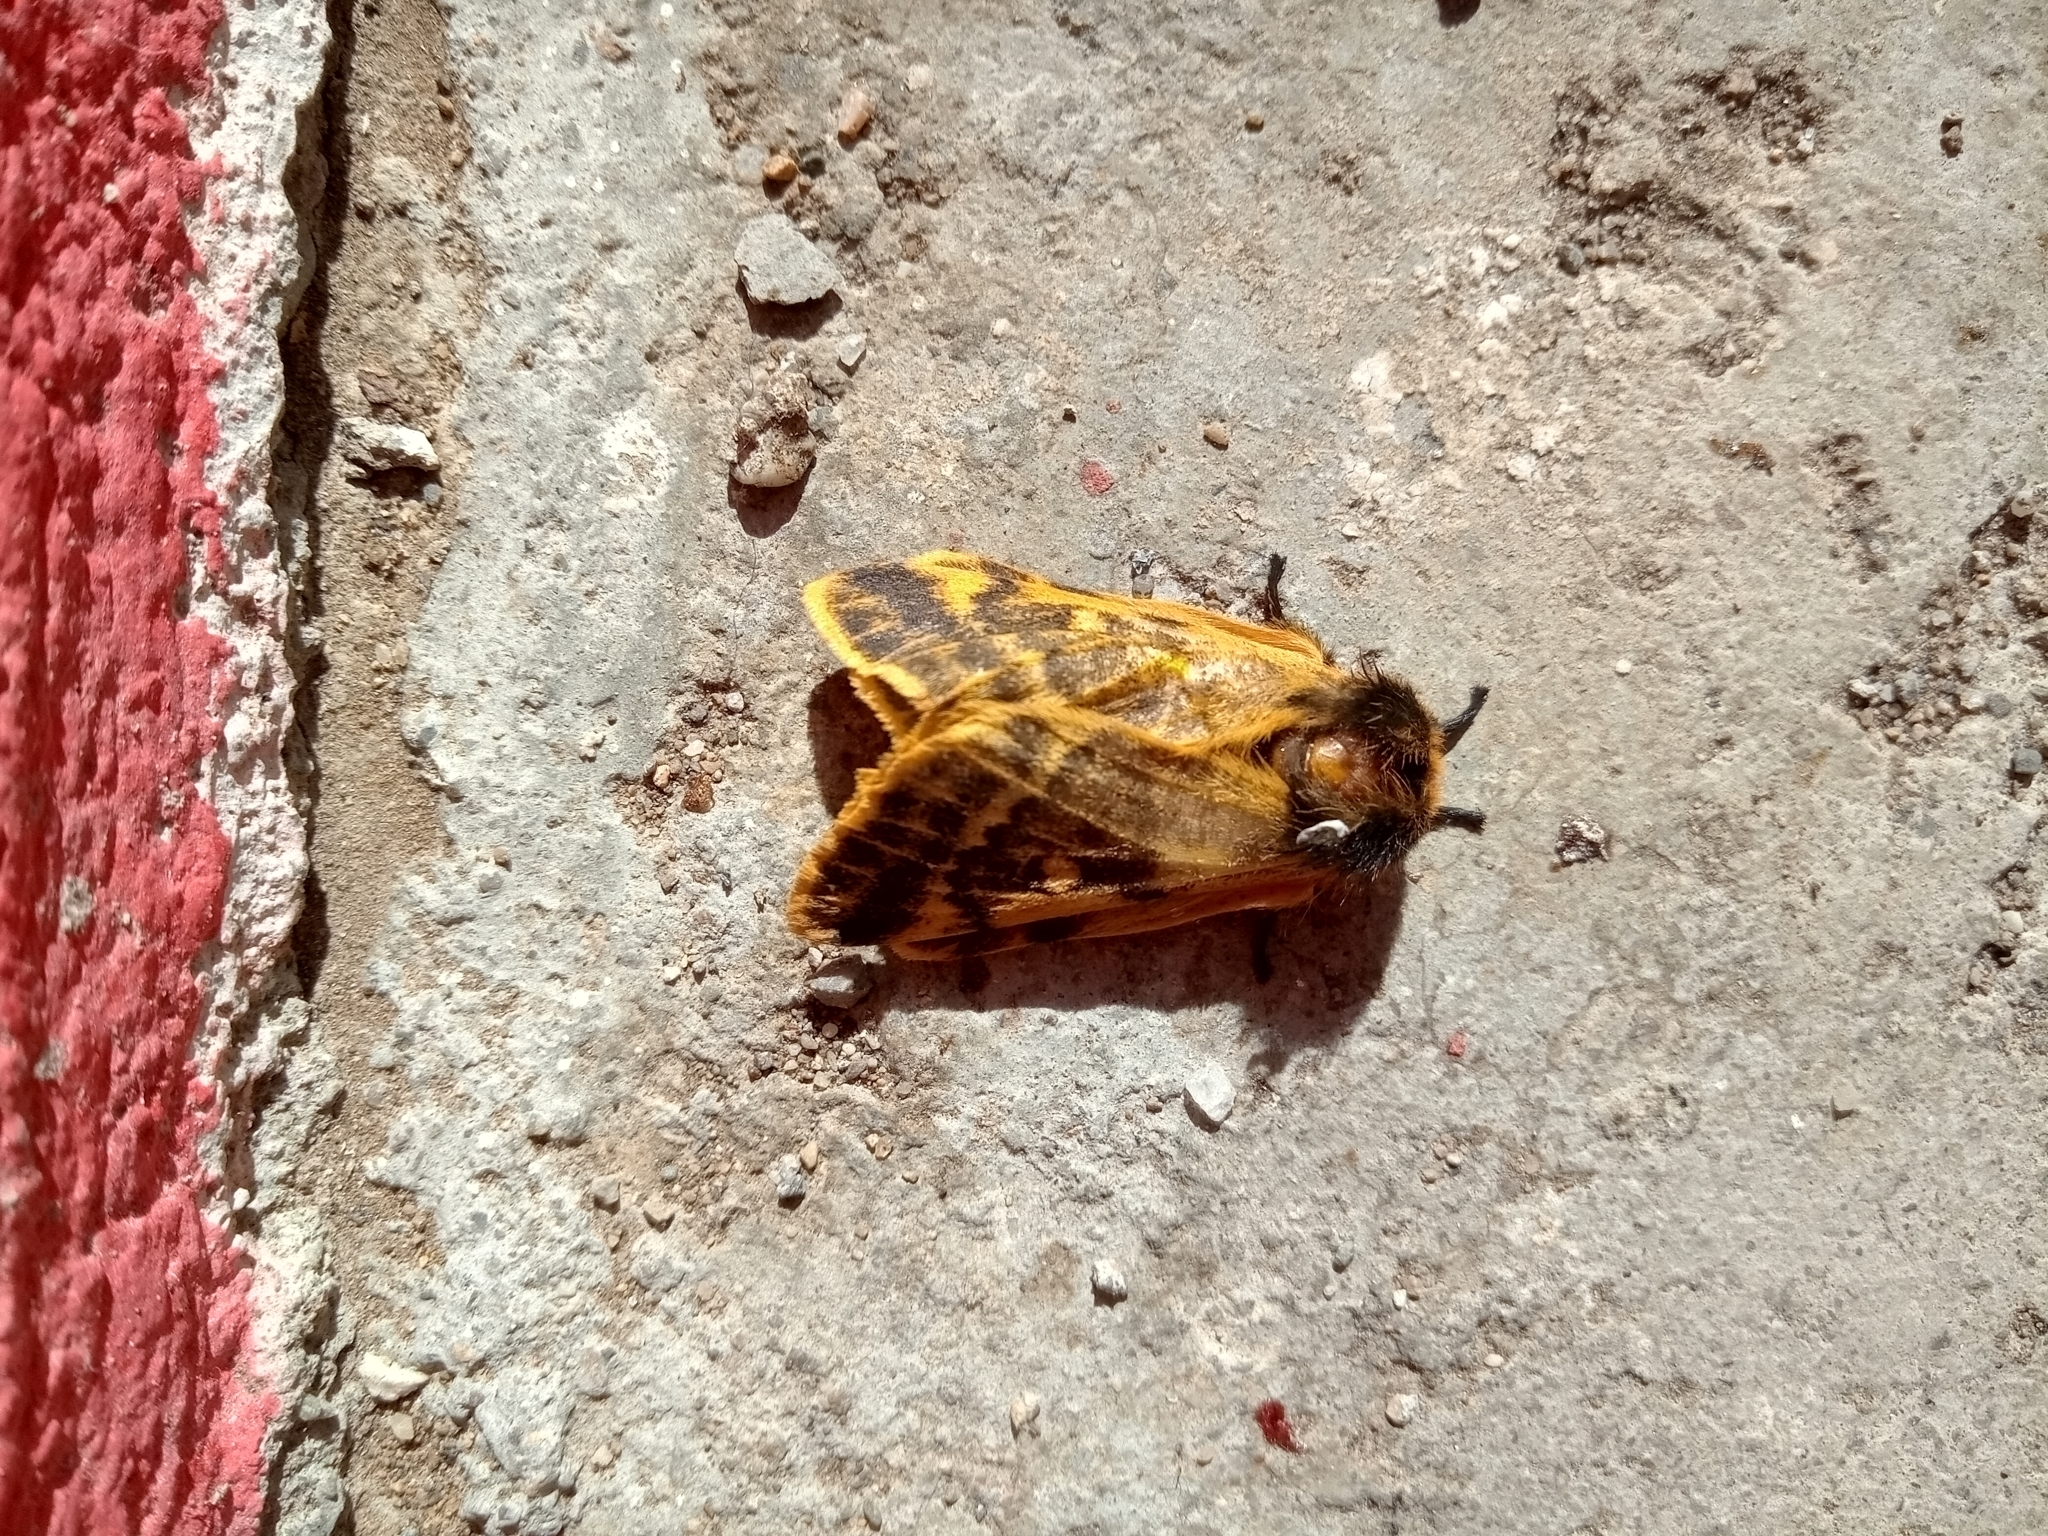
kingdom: Animalia
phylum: Arthropoda
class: Insecta
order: Lepidoptera
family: Saturniidae
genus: Ormiscodes
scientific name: Ormiscodes bruchi
